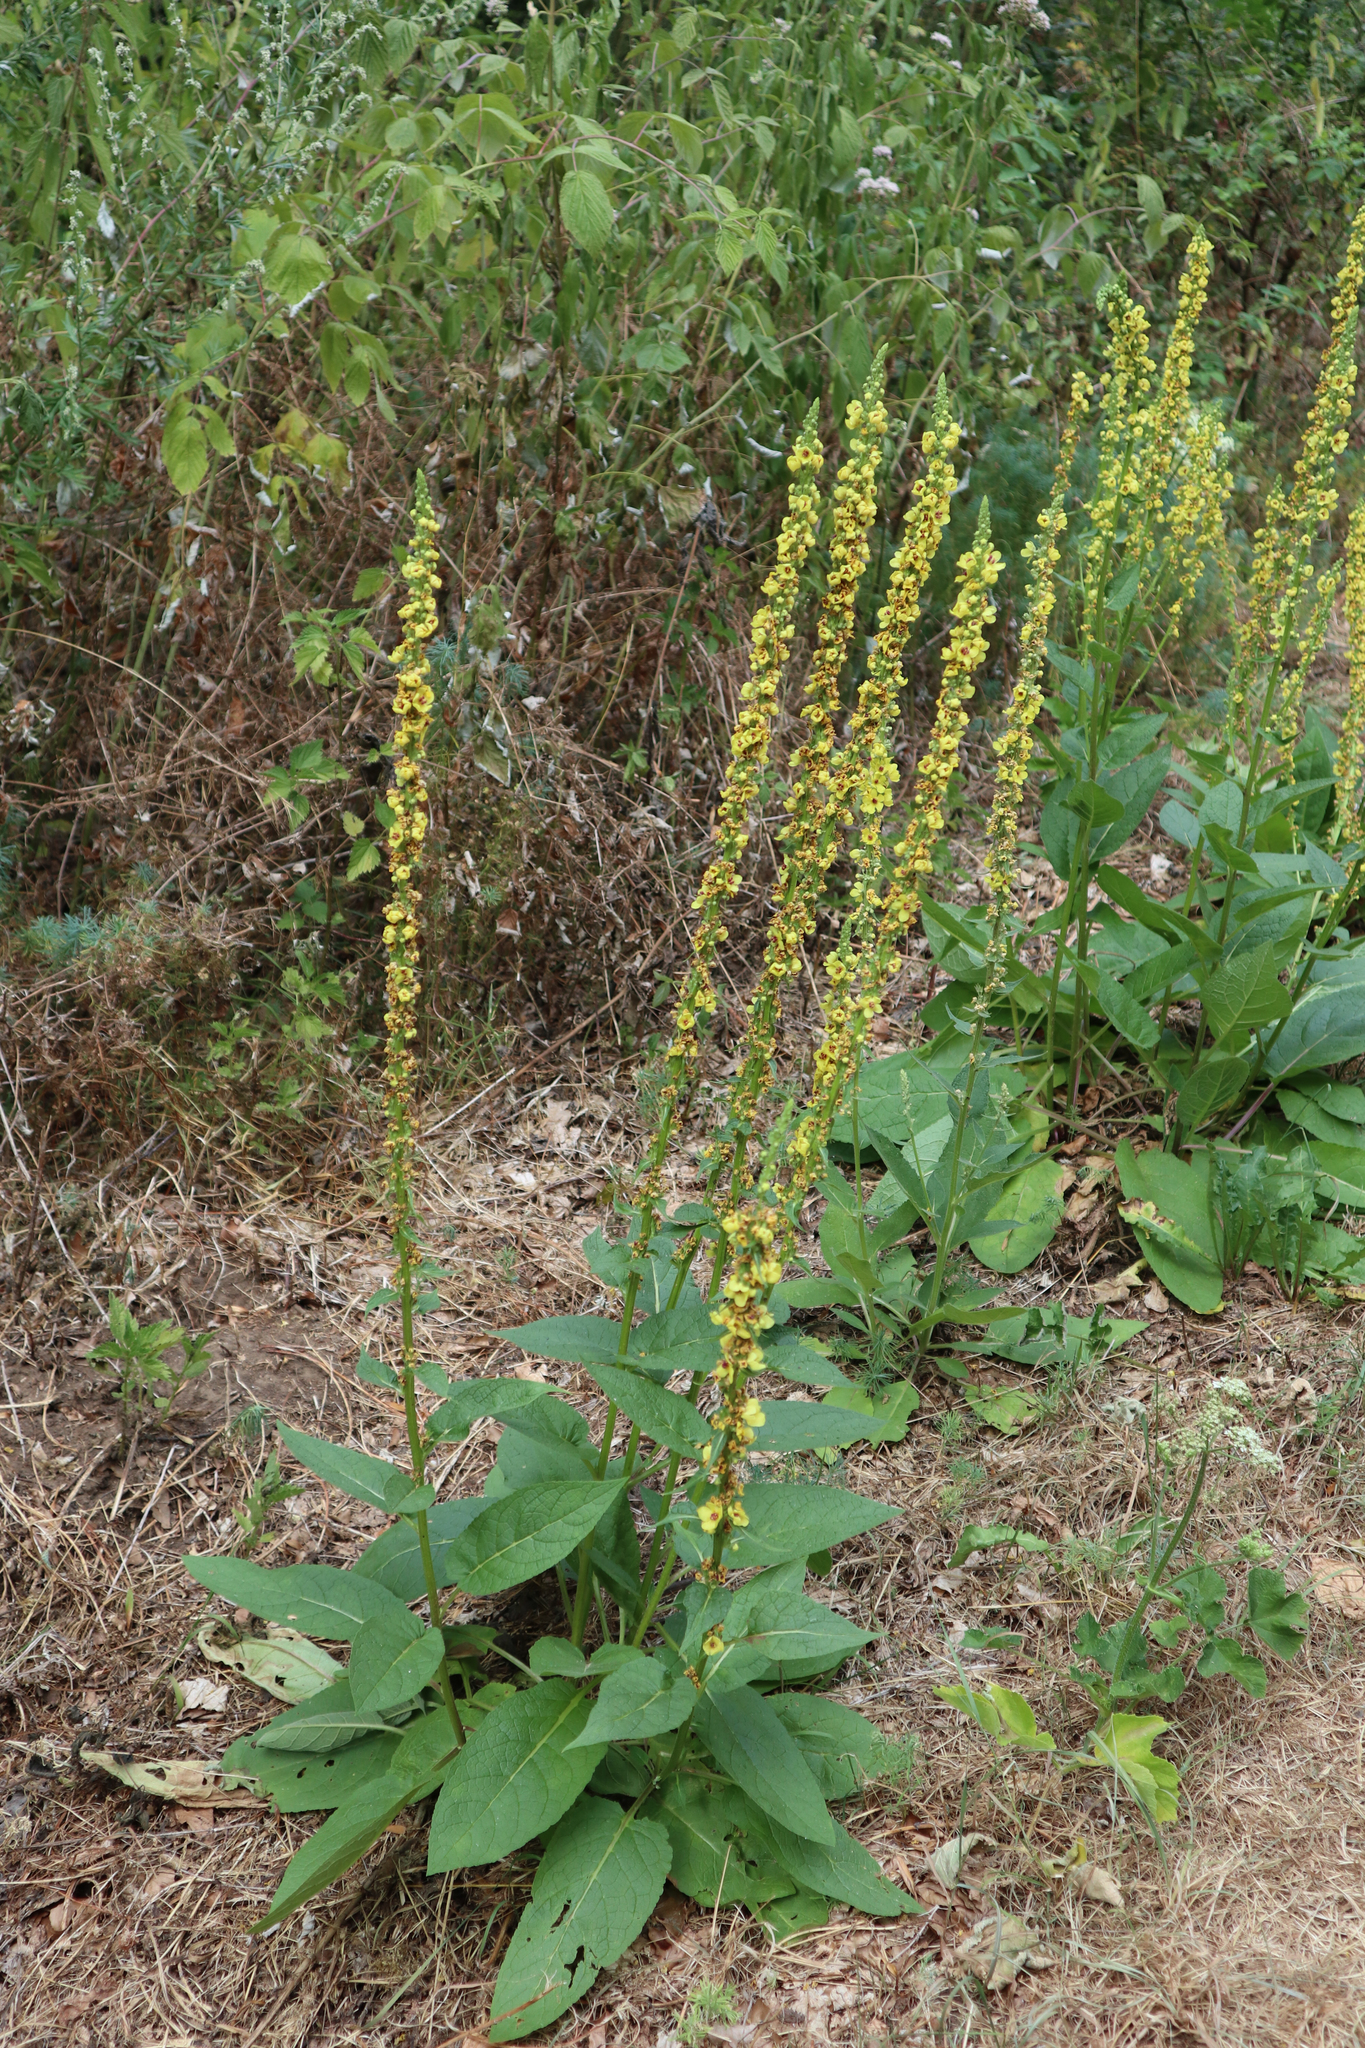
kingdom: Plantae
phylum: Tracheophyta
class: Magnoliopsida
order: Lamiales
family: Scrophulariaceae
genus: Verbascum
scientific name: Verbascum nigrum
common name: Dark mullein
